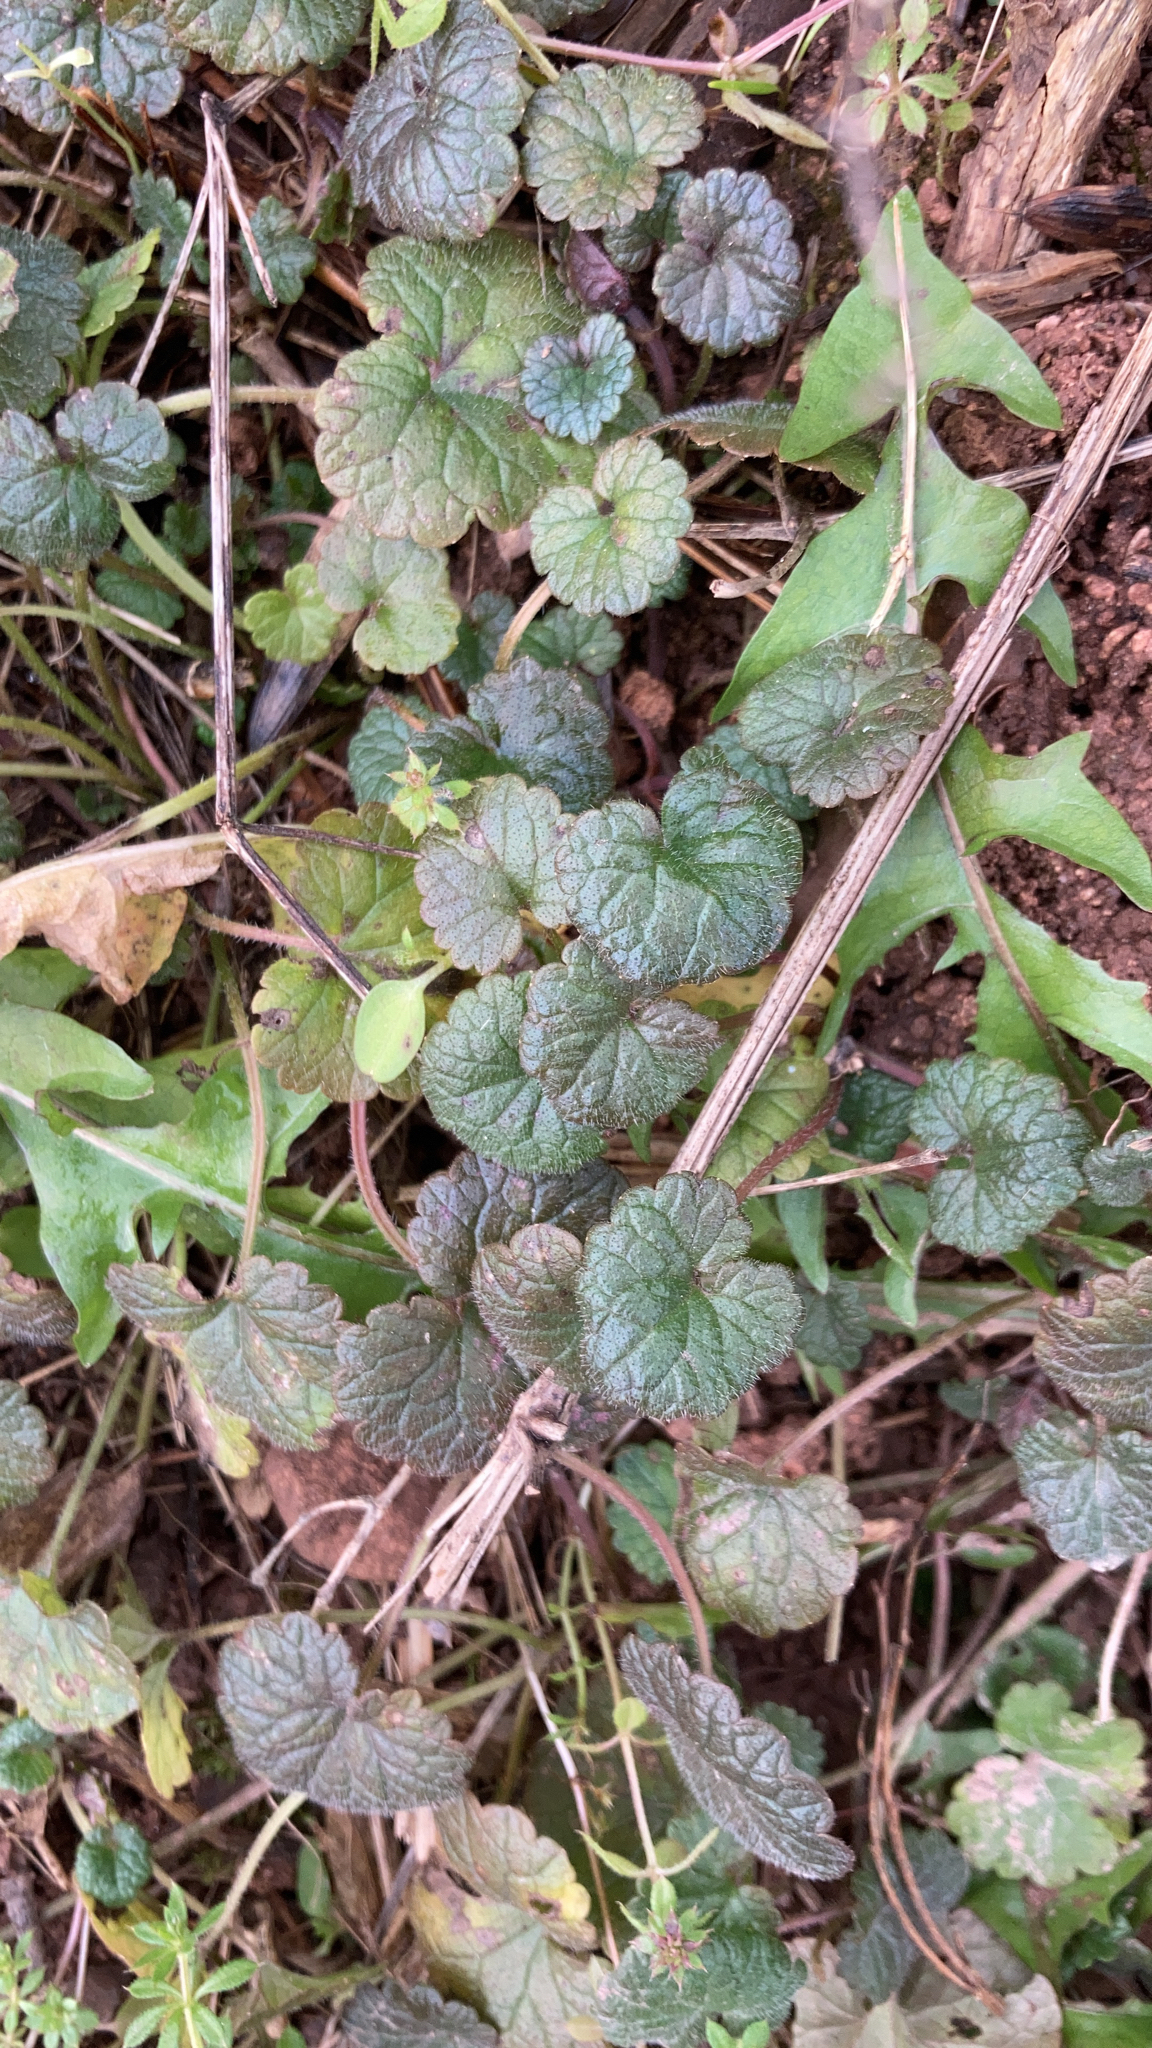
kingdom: Plantae
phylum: Tracheophyta
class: Magnoliopsida
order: Lamiales
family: Lamiaceae
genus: Glechoma
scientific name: Glechoma hederacea
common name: Ground ivy
